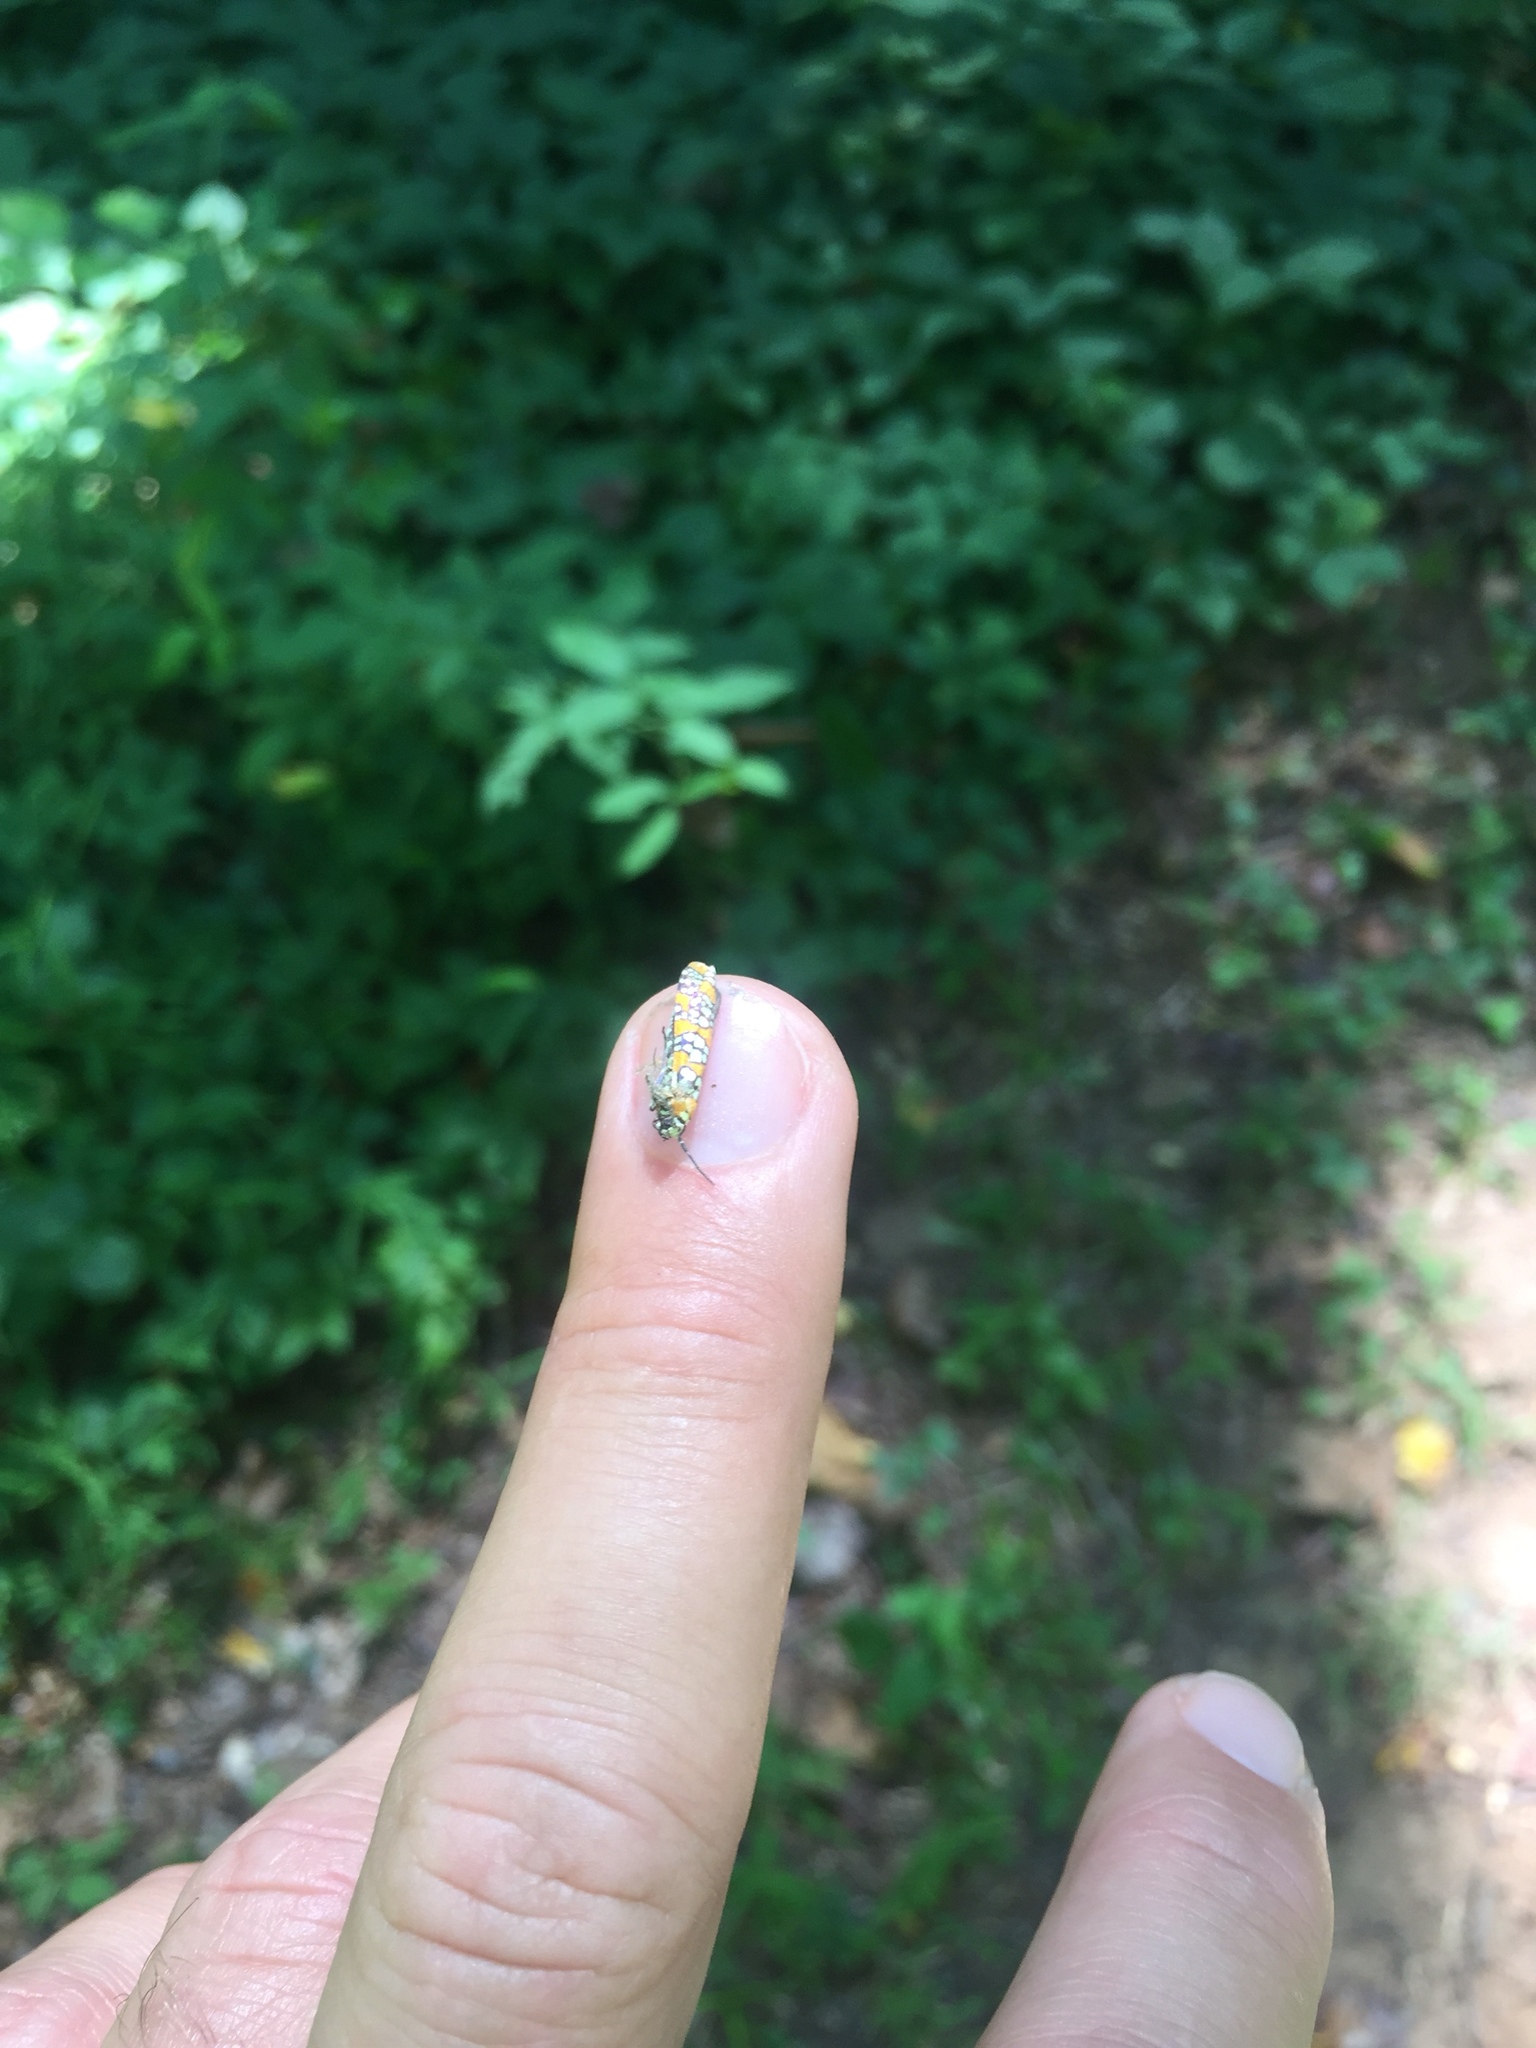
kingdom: Animalia
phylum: Arthropoda
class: Insecta
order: Lepidoptera
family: Attevidae
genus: Atteva
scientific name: Atteva punctella
